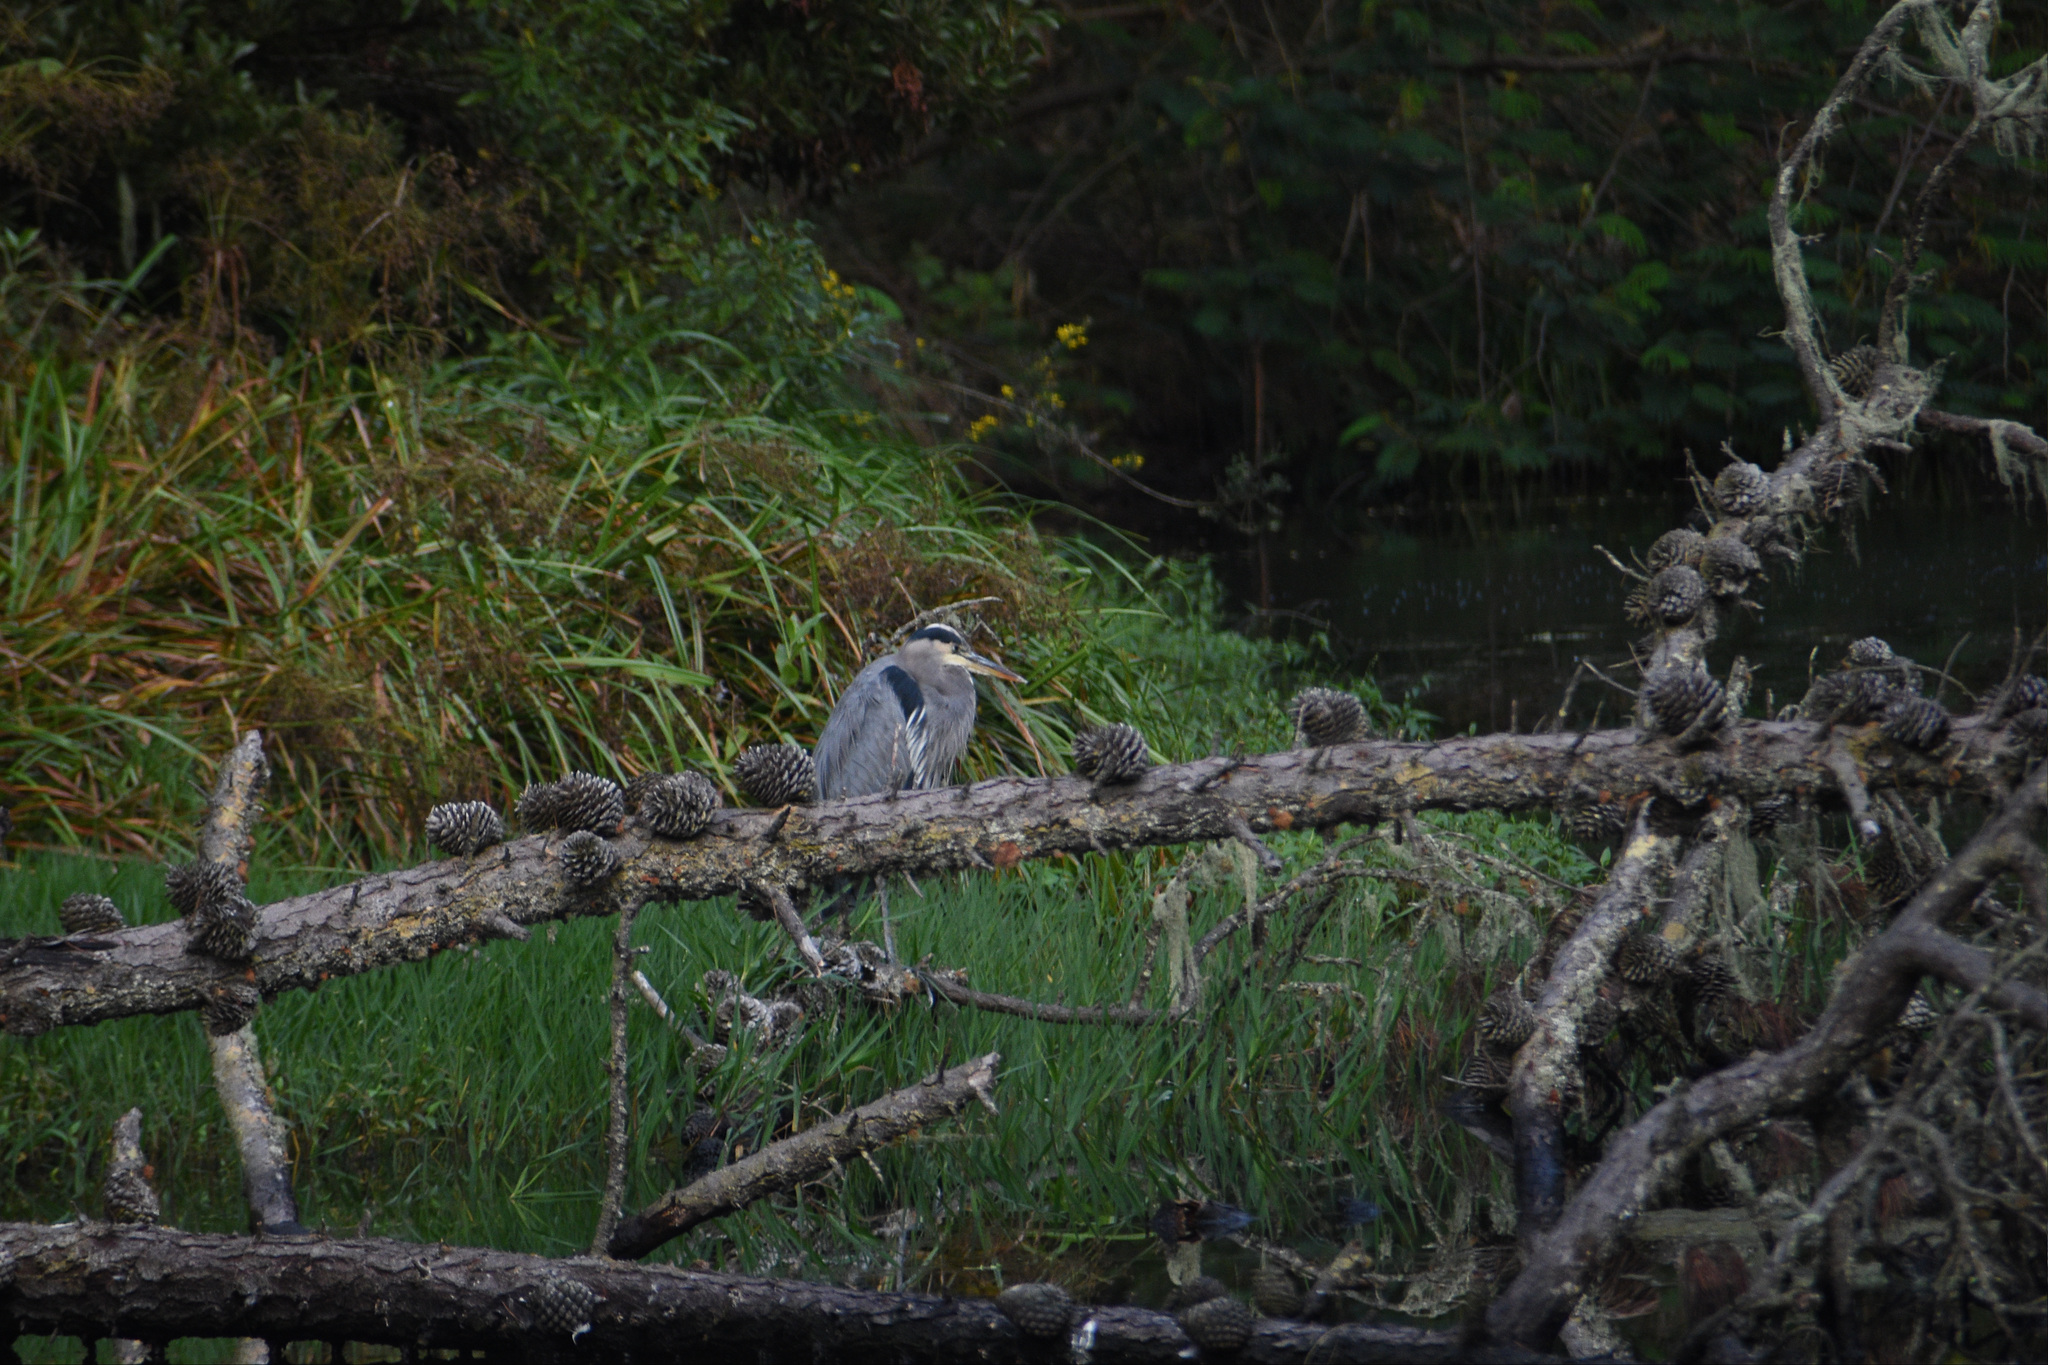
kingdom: Animalia
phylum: Chordata
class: Aves
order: Pelecaniformes
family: Ardeidae
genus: Ardea
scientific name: Ardea herodias
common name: Great blue heron
